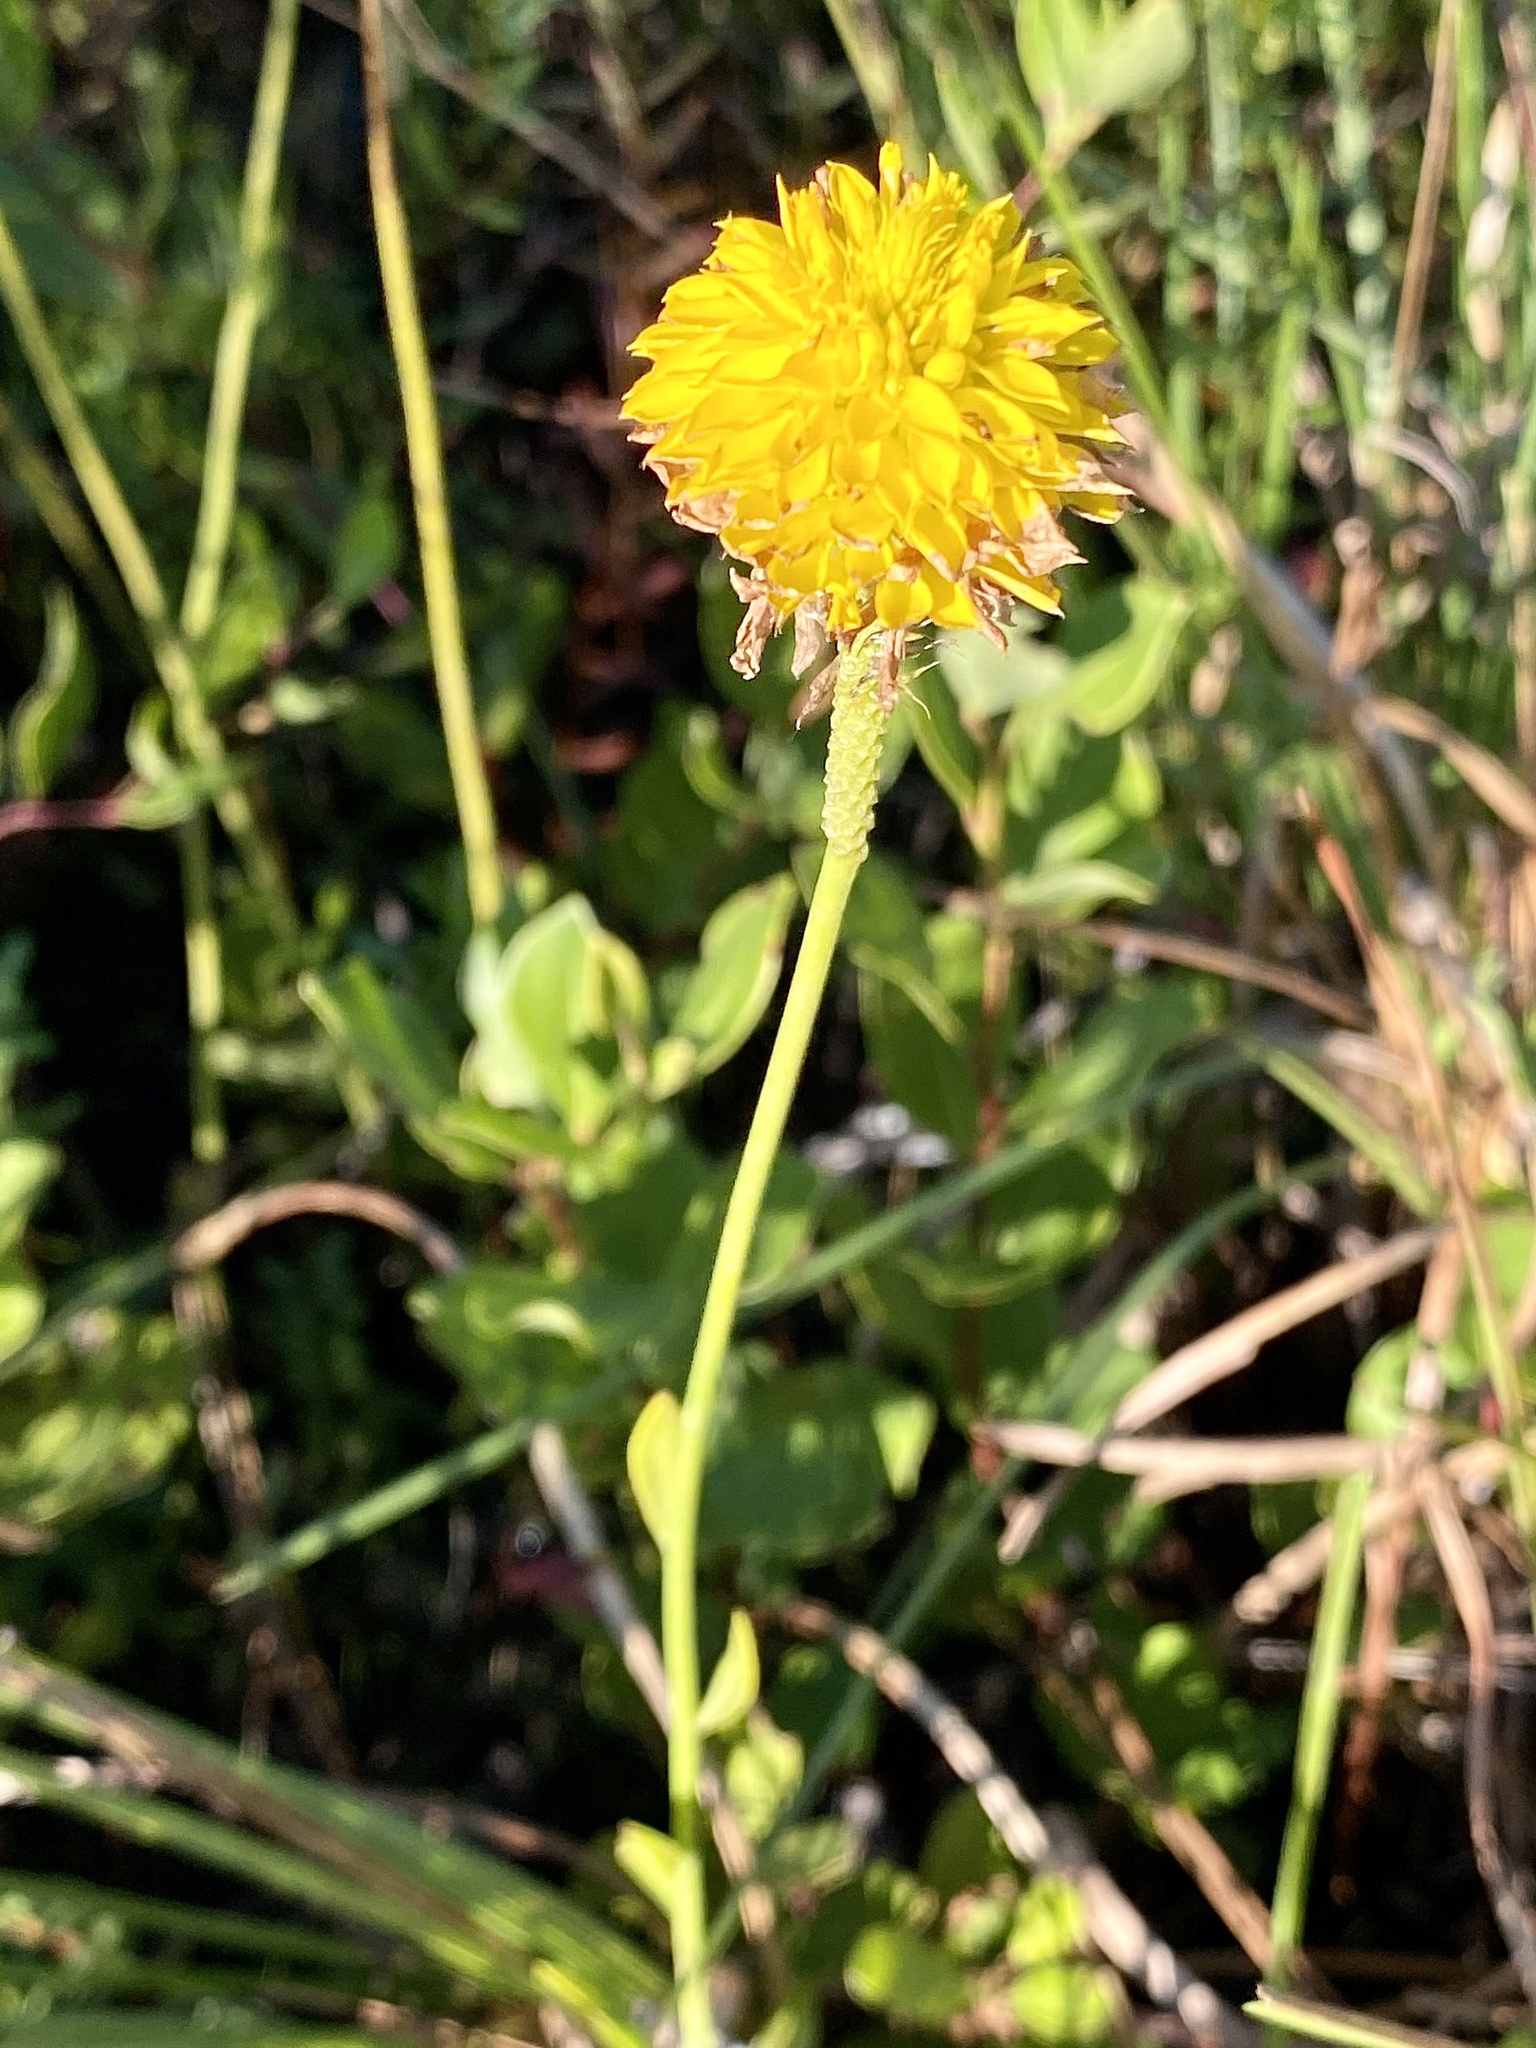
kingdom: Plantae
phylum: Tracheophyta
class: Magnoliopsida
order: Fabales
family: Polygalaceae
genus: Polygala
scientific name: Polygala rugelii
